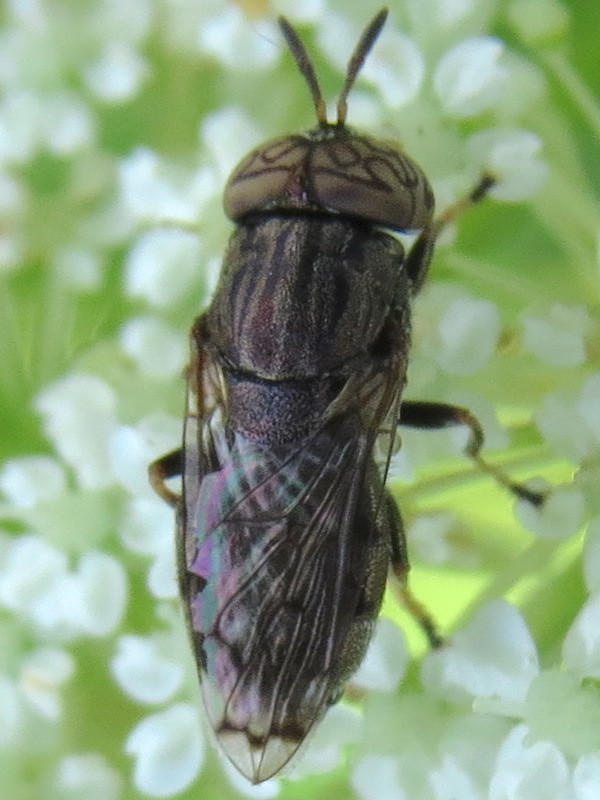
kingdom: Animalia
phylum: Arthropoda
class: Insecta
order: Diptera
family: Syrphidae
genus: Orthonevra
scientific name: Orthonevra nitida
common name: Wavy mucksucker
